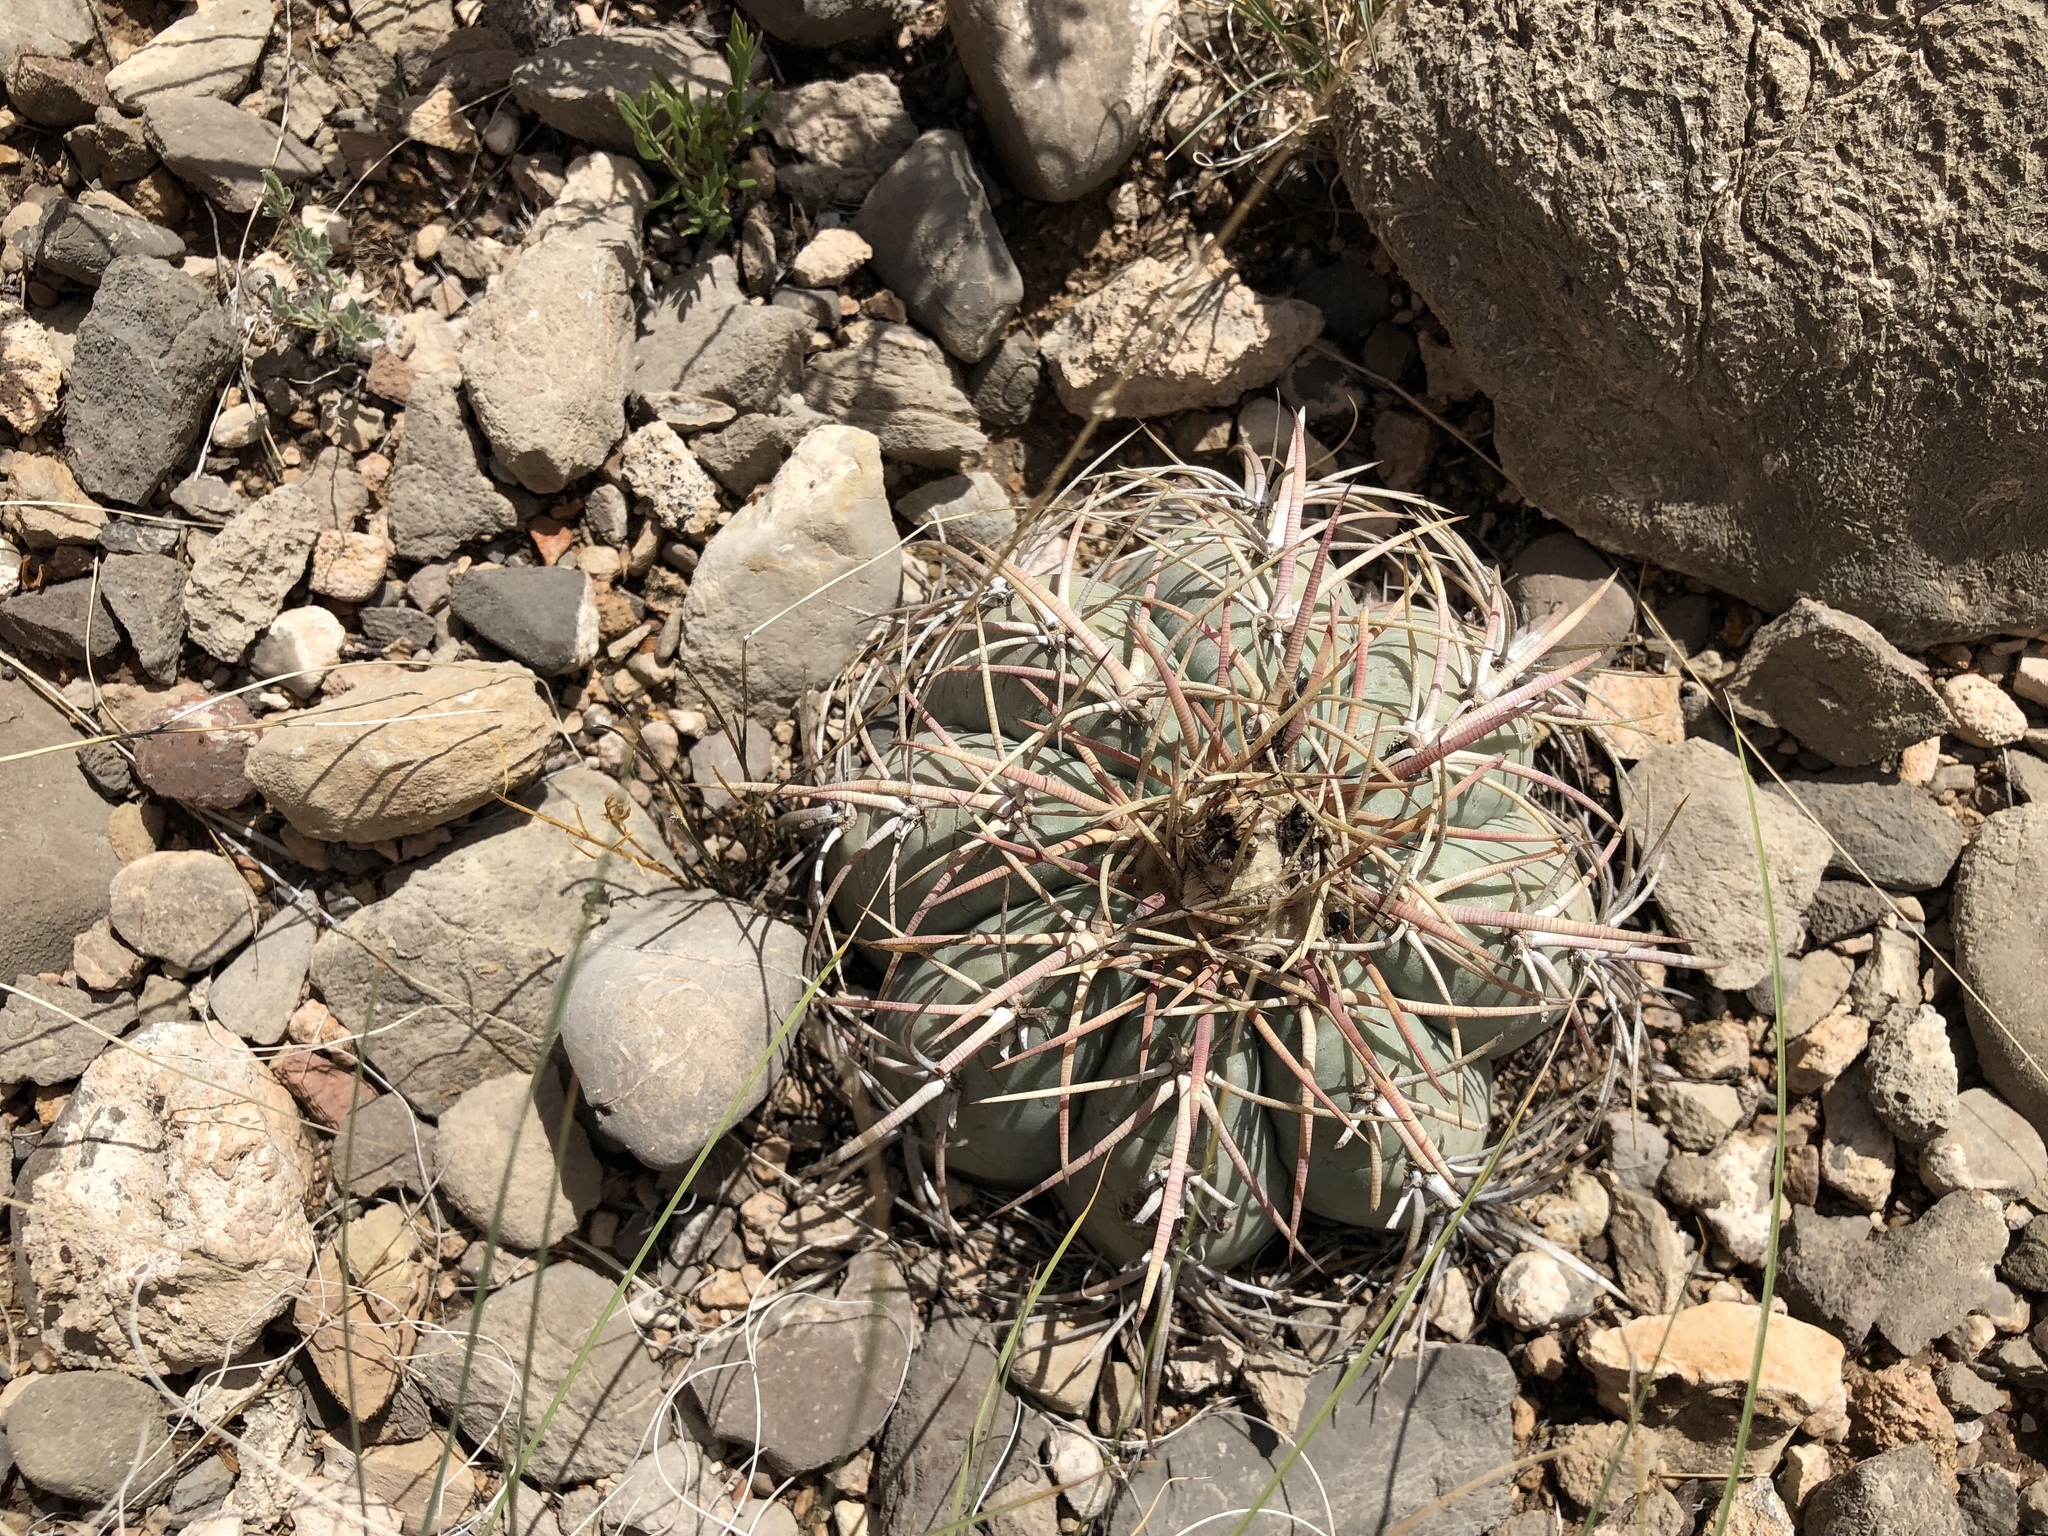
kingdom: Plantae
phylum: Tracheophyta
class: Magnoliopsida
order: Caryophyllales
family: Cactaceae
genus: Echinocactus
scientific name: Echinocactus horizonthalonius
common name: Devilshead
